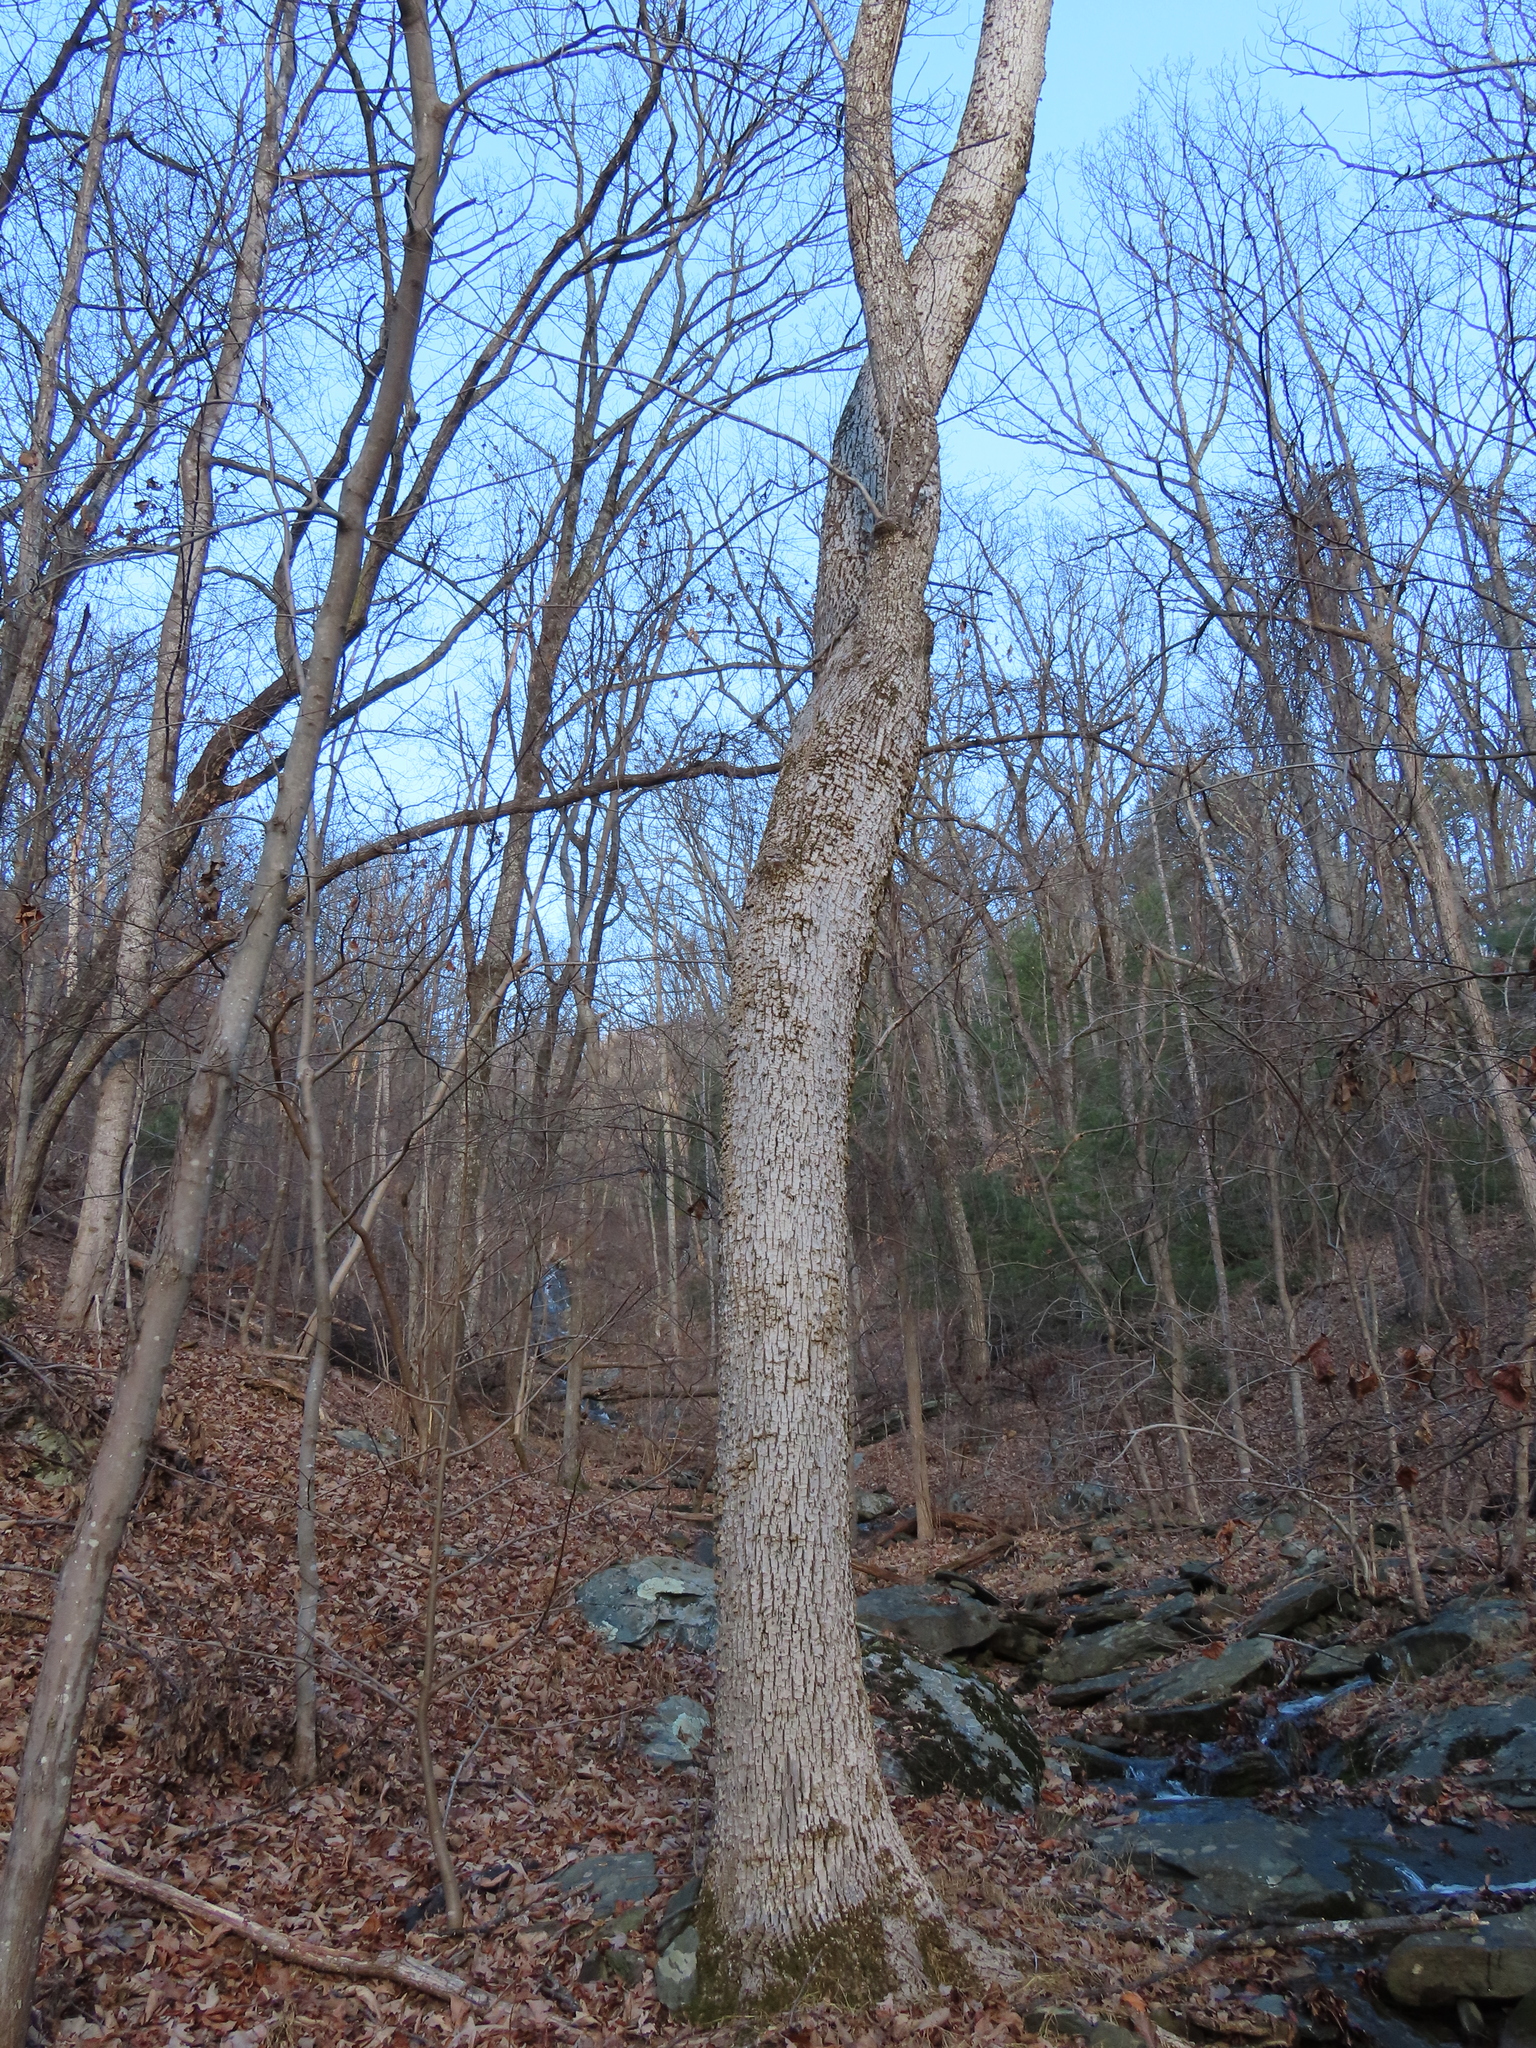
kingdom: Animalia
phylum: Arthropoda
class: Insecta
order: Coleoptera
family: Buprestidae
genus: Agrilus
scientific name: Agrilus planipennis
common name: Emerald ash borer
